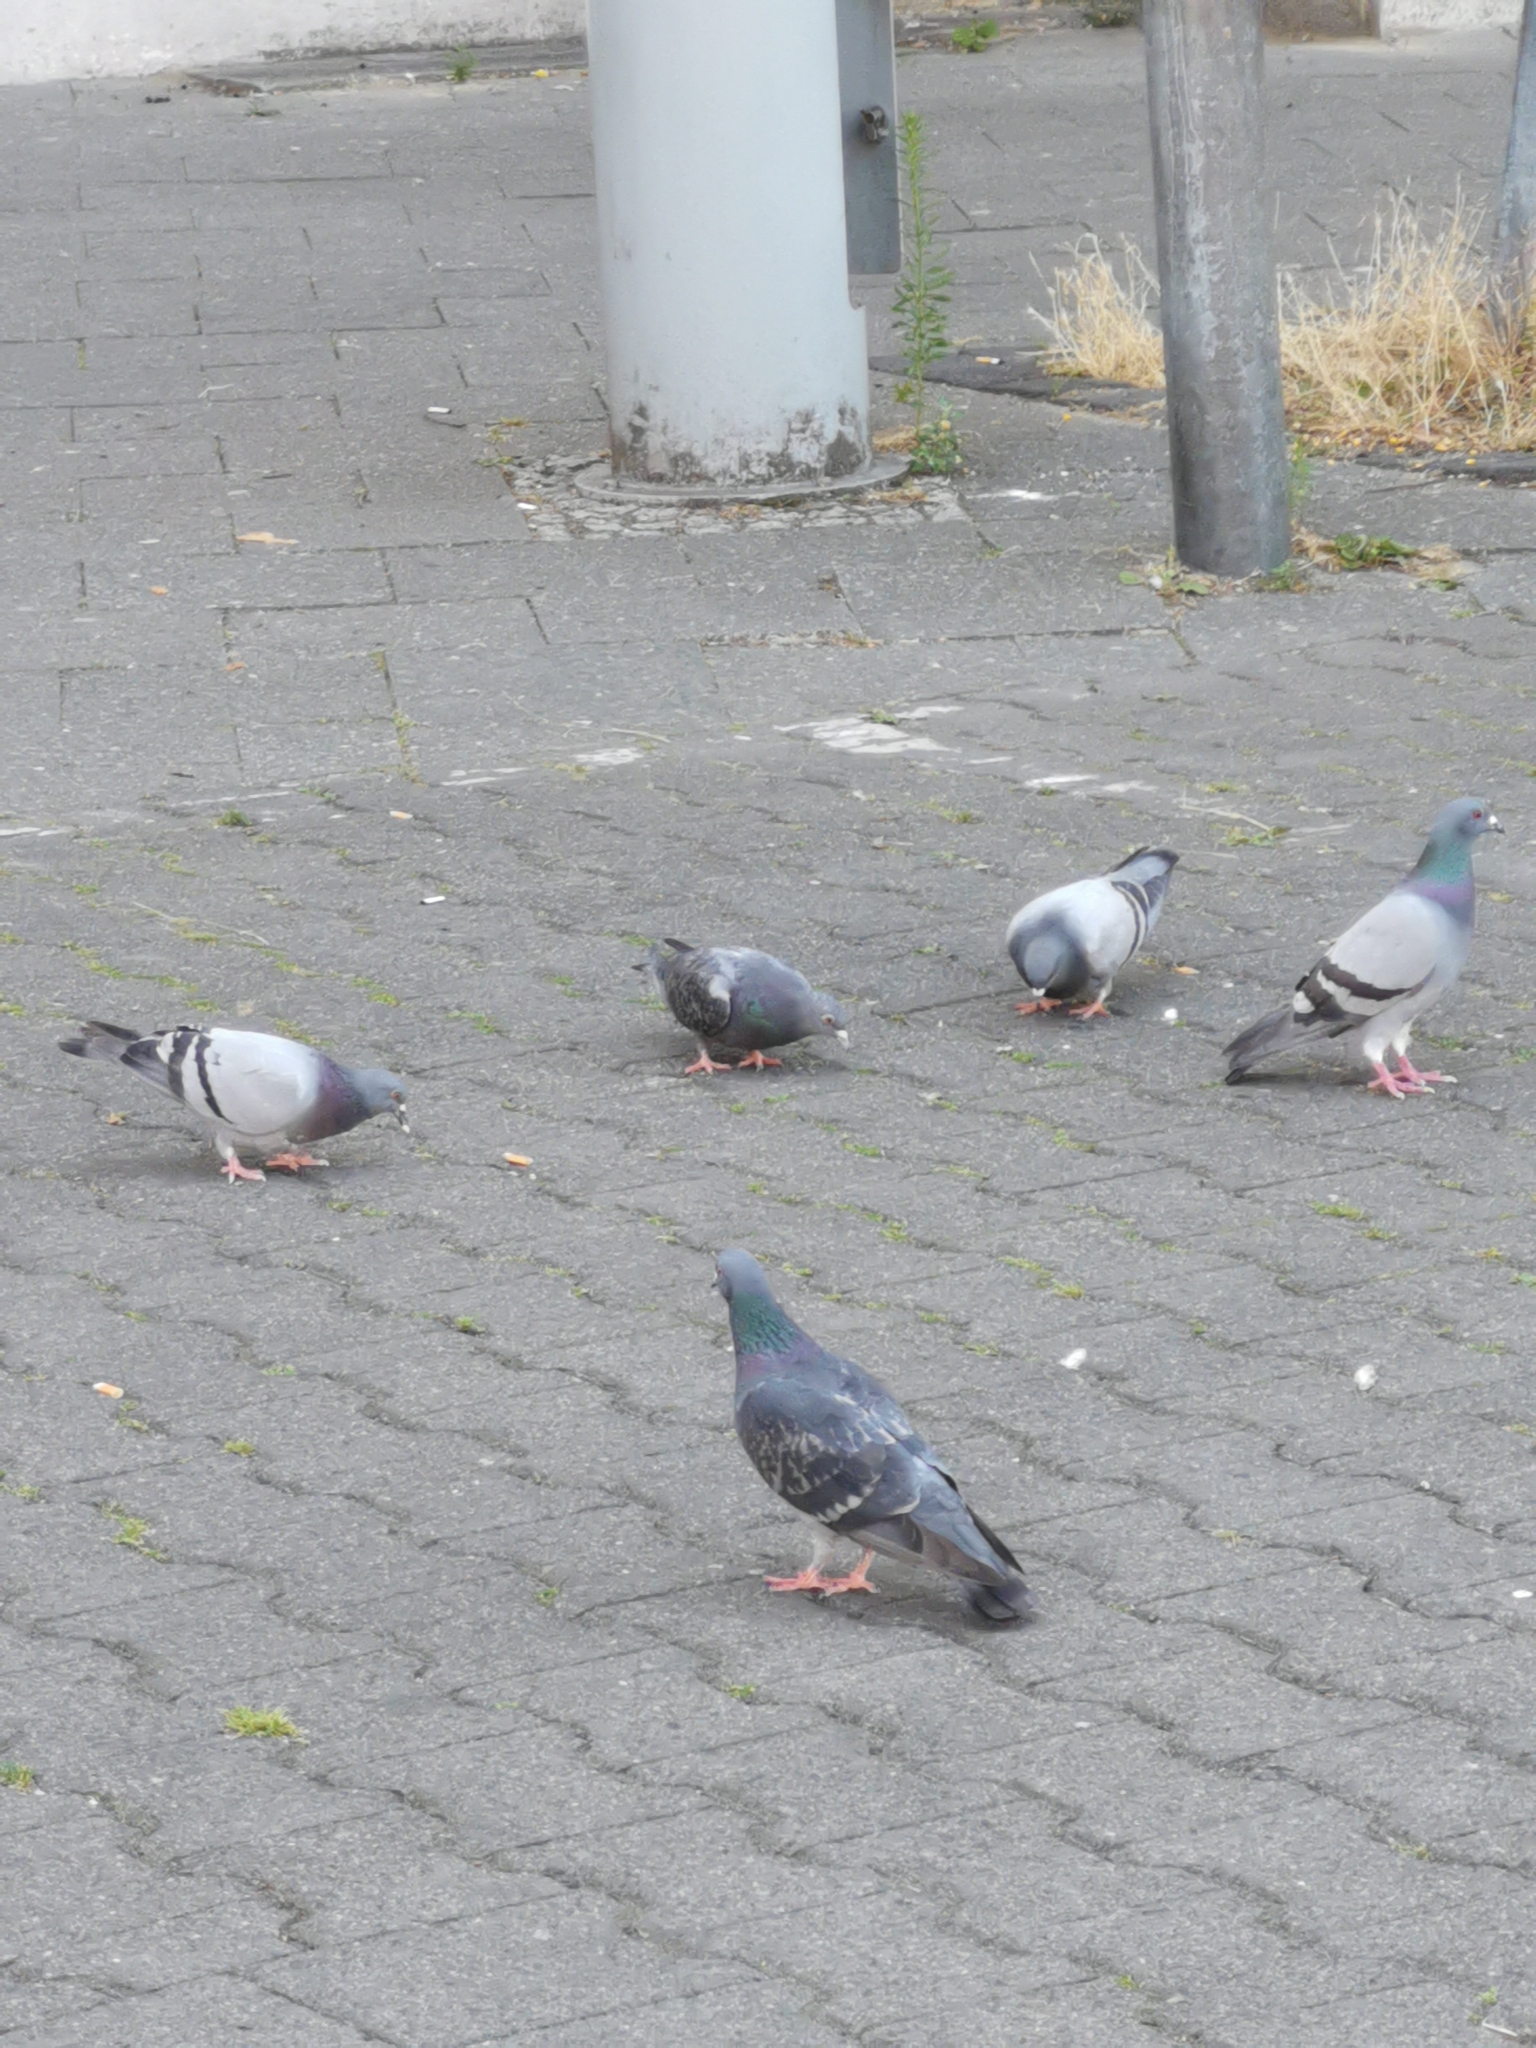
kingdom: Animalia
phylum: Chordata
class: Aves
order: Columbiformes
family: Columbidae
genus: Columba
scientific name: Columba livia
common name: Rock pigeon
